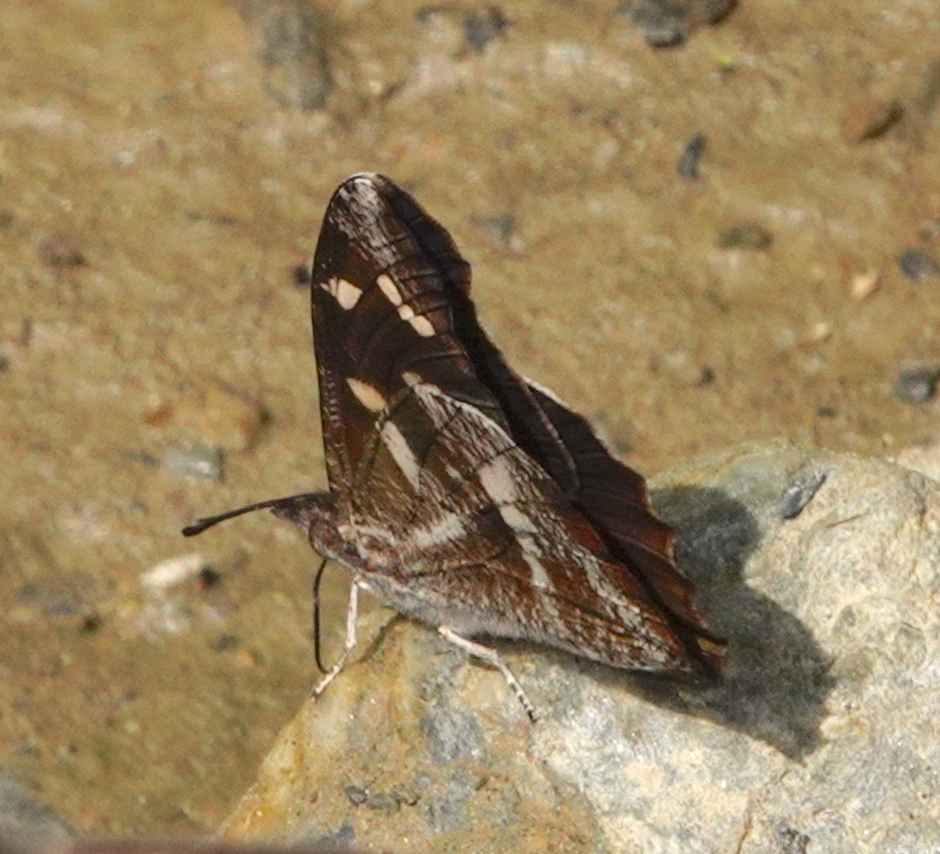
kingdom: Animalia
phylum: Arthropoda
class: Insecta
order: Lepidoptera
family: Nymphalidae
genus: Libythea
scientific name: Libythea narina
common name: Whitespotted beak
